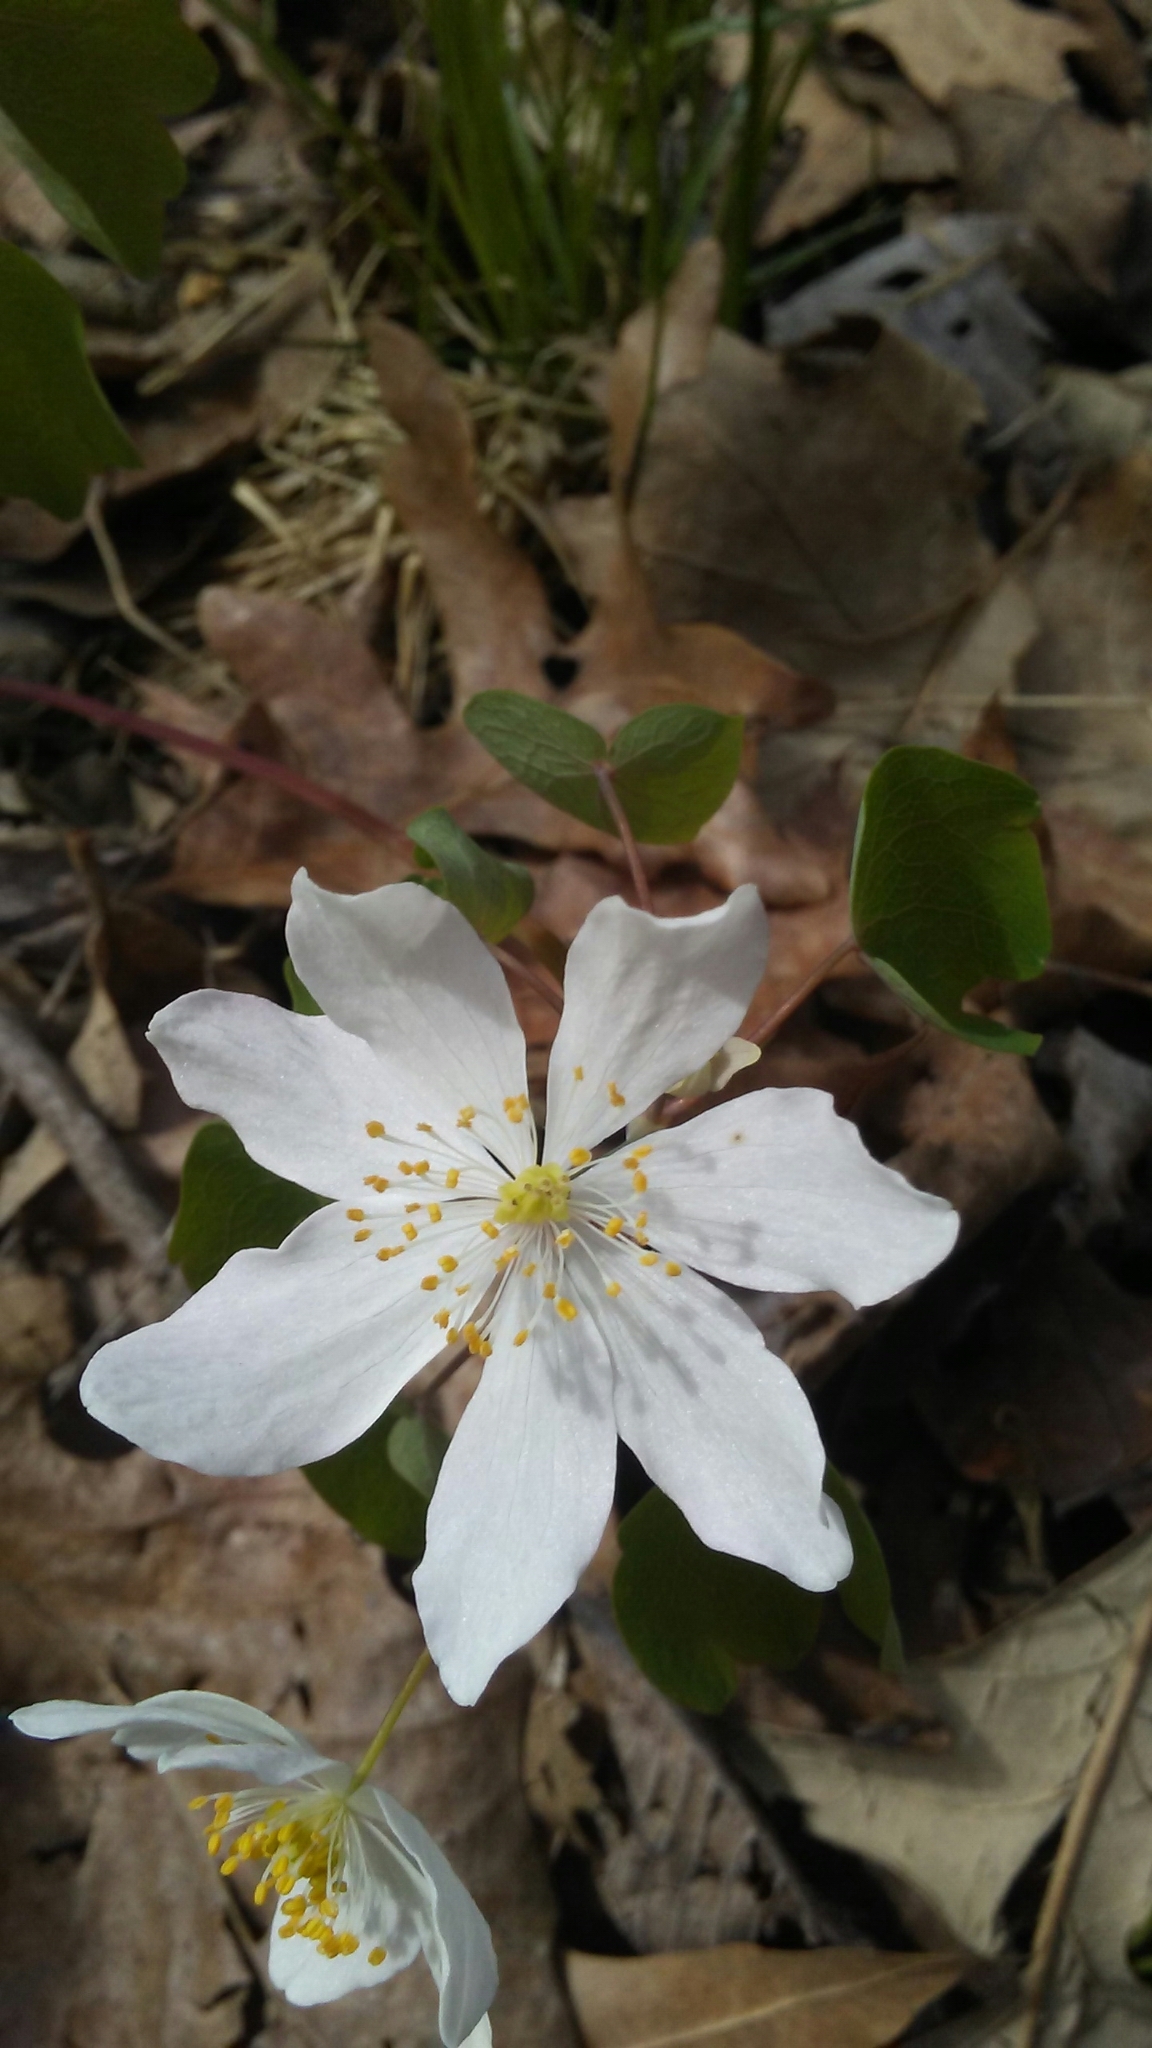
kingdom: Plantae
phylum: Tracheophyta
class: Magnoliopsida
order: Ranunculales
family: Ranunculaceae
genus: Thalictrum
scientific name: Thalictrum thalictroides
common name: Rue-anemone
